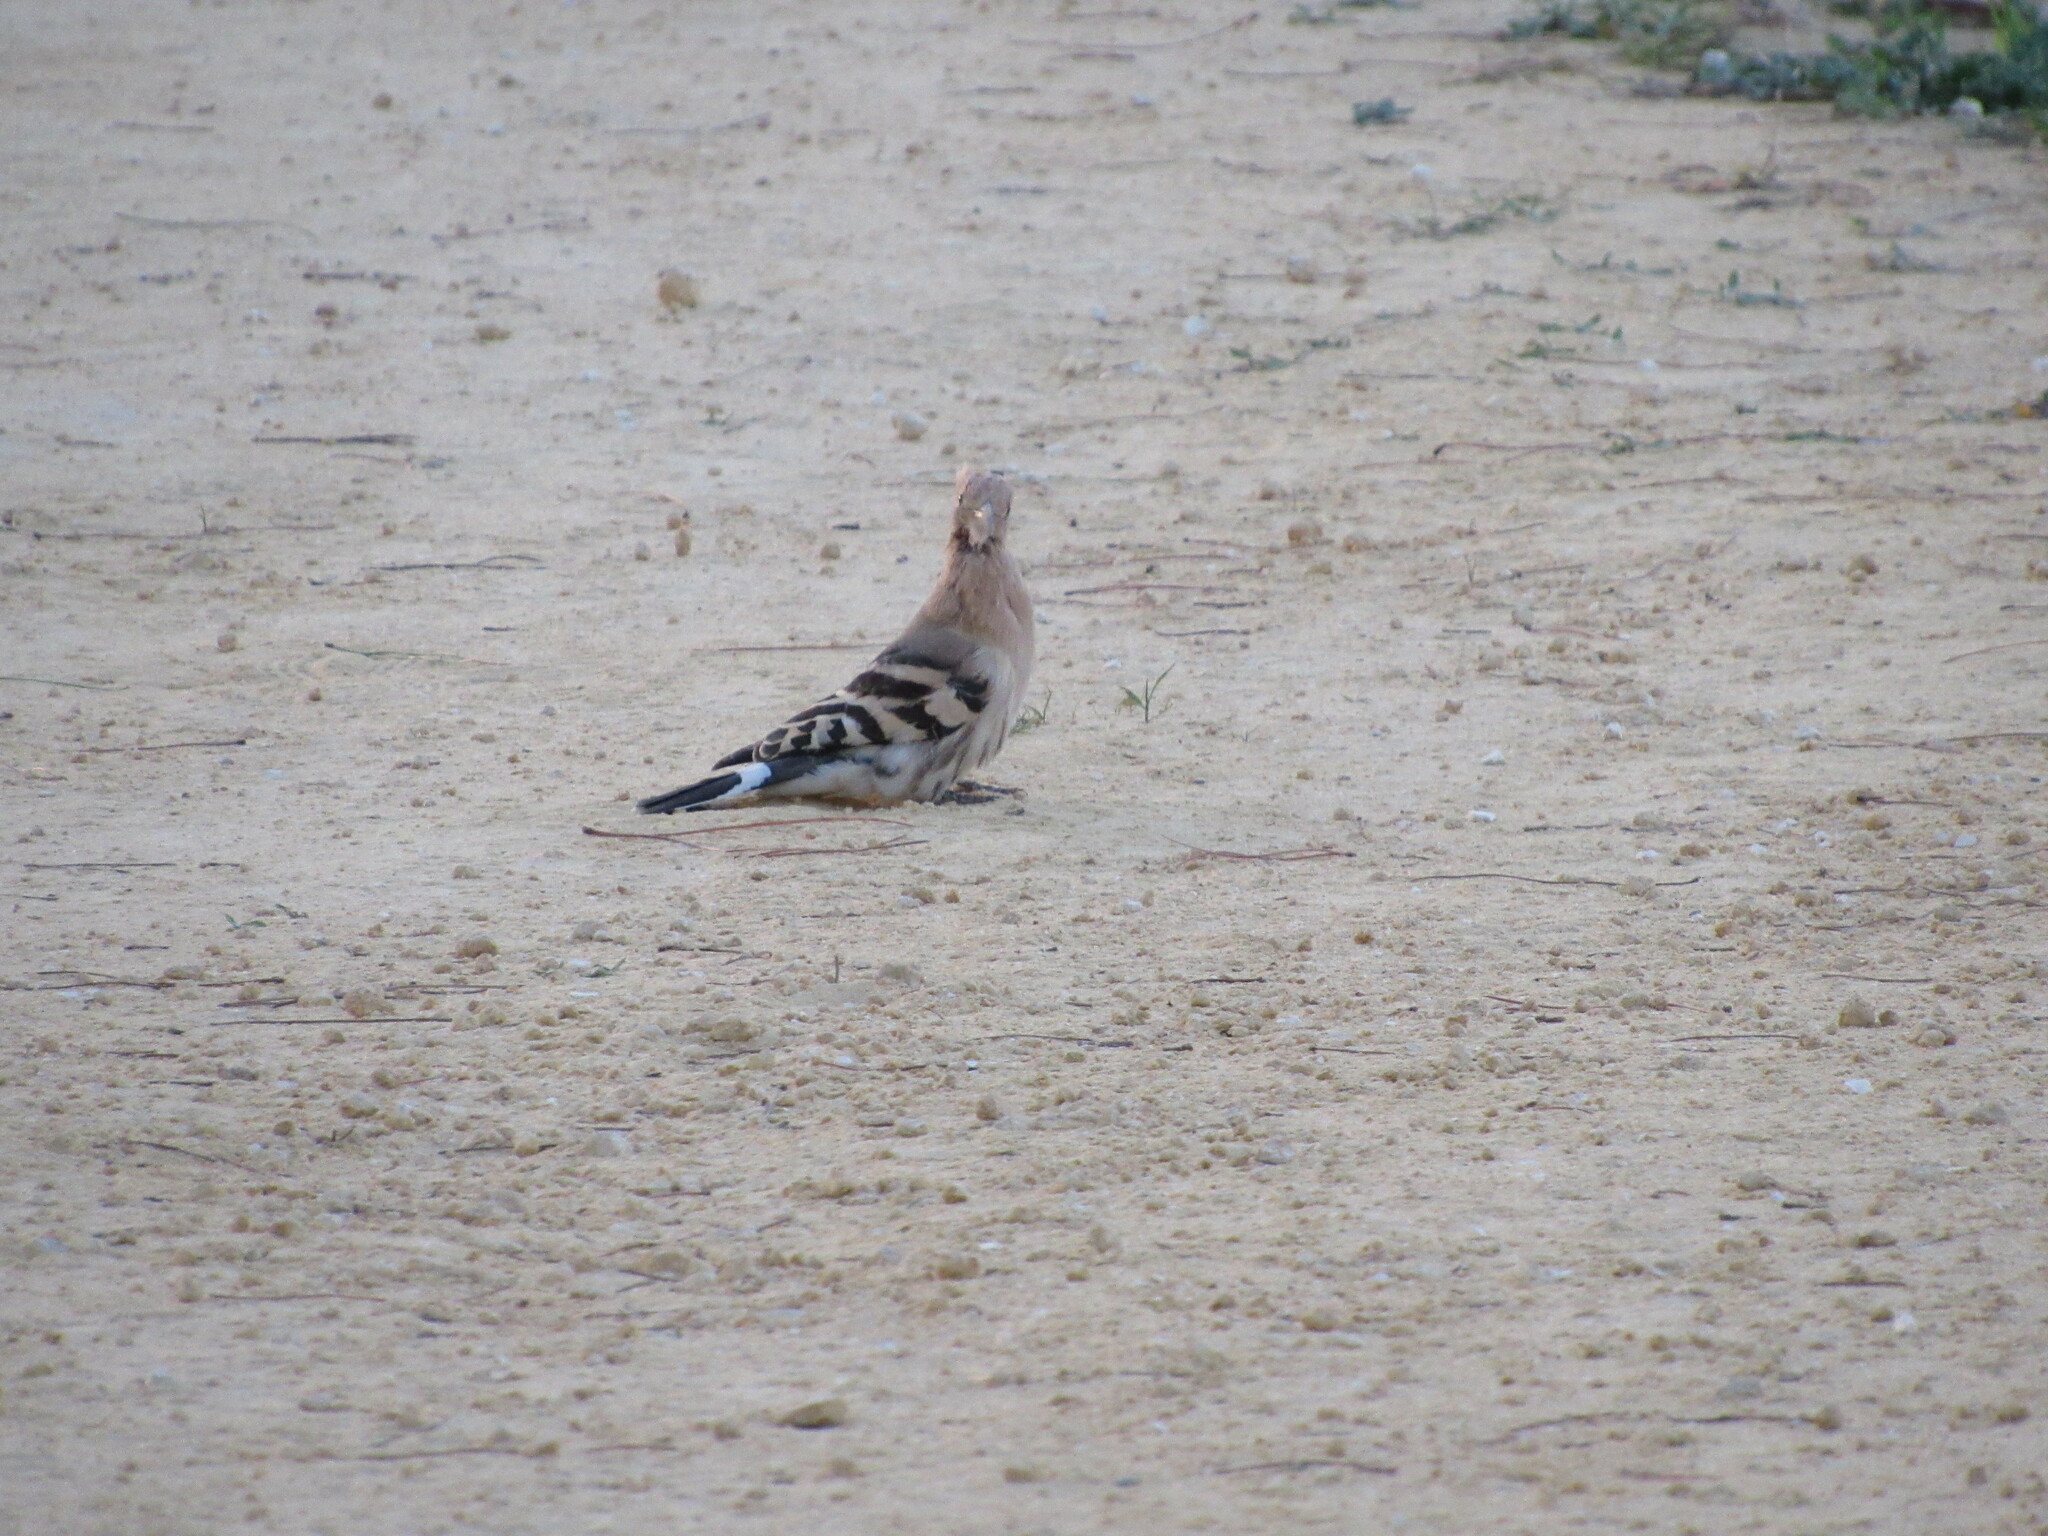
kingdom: Animalia
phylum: Chordata
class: Aves
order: Bucerotiformes
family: Upupidae
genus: Upupa
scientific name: Upupa epops
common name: Eurasian hoopoe
